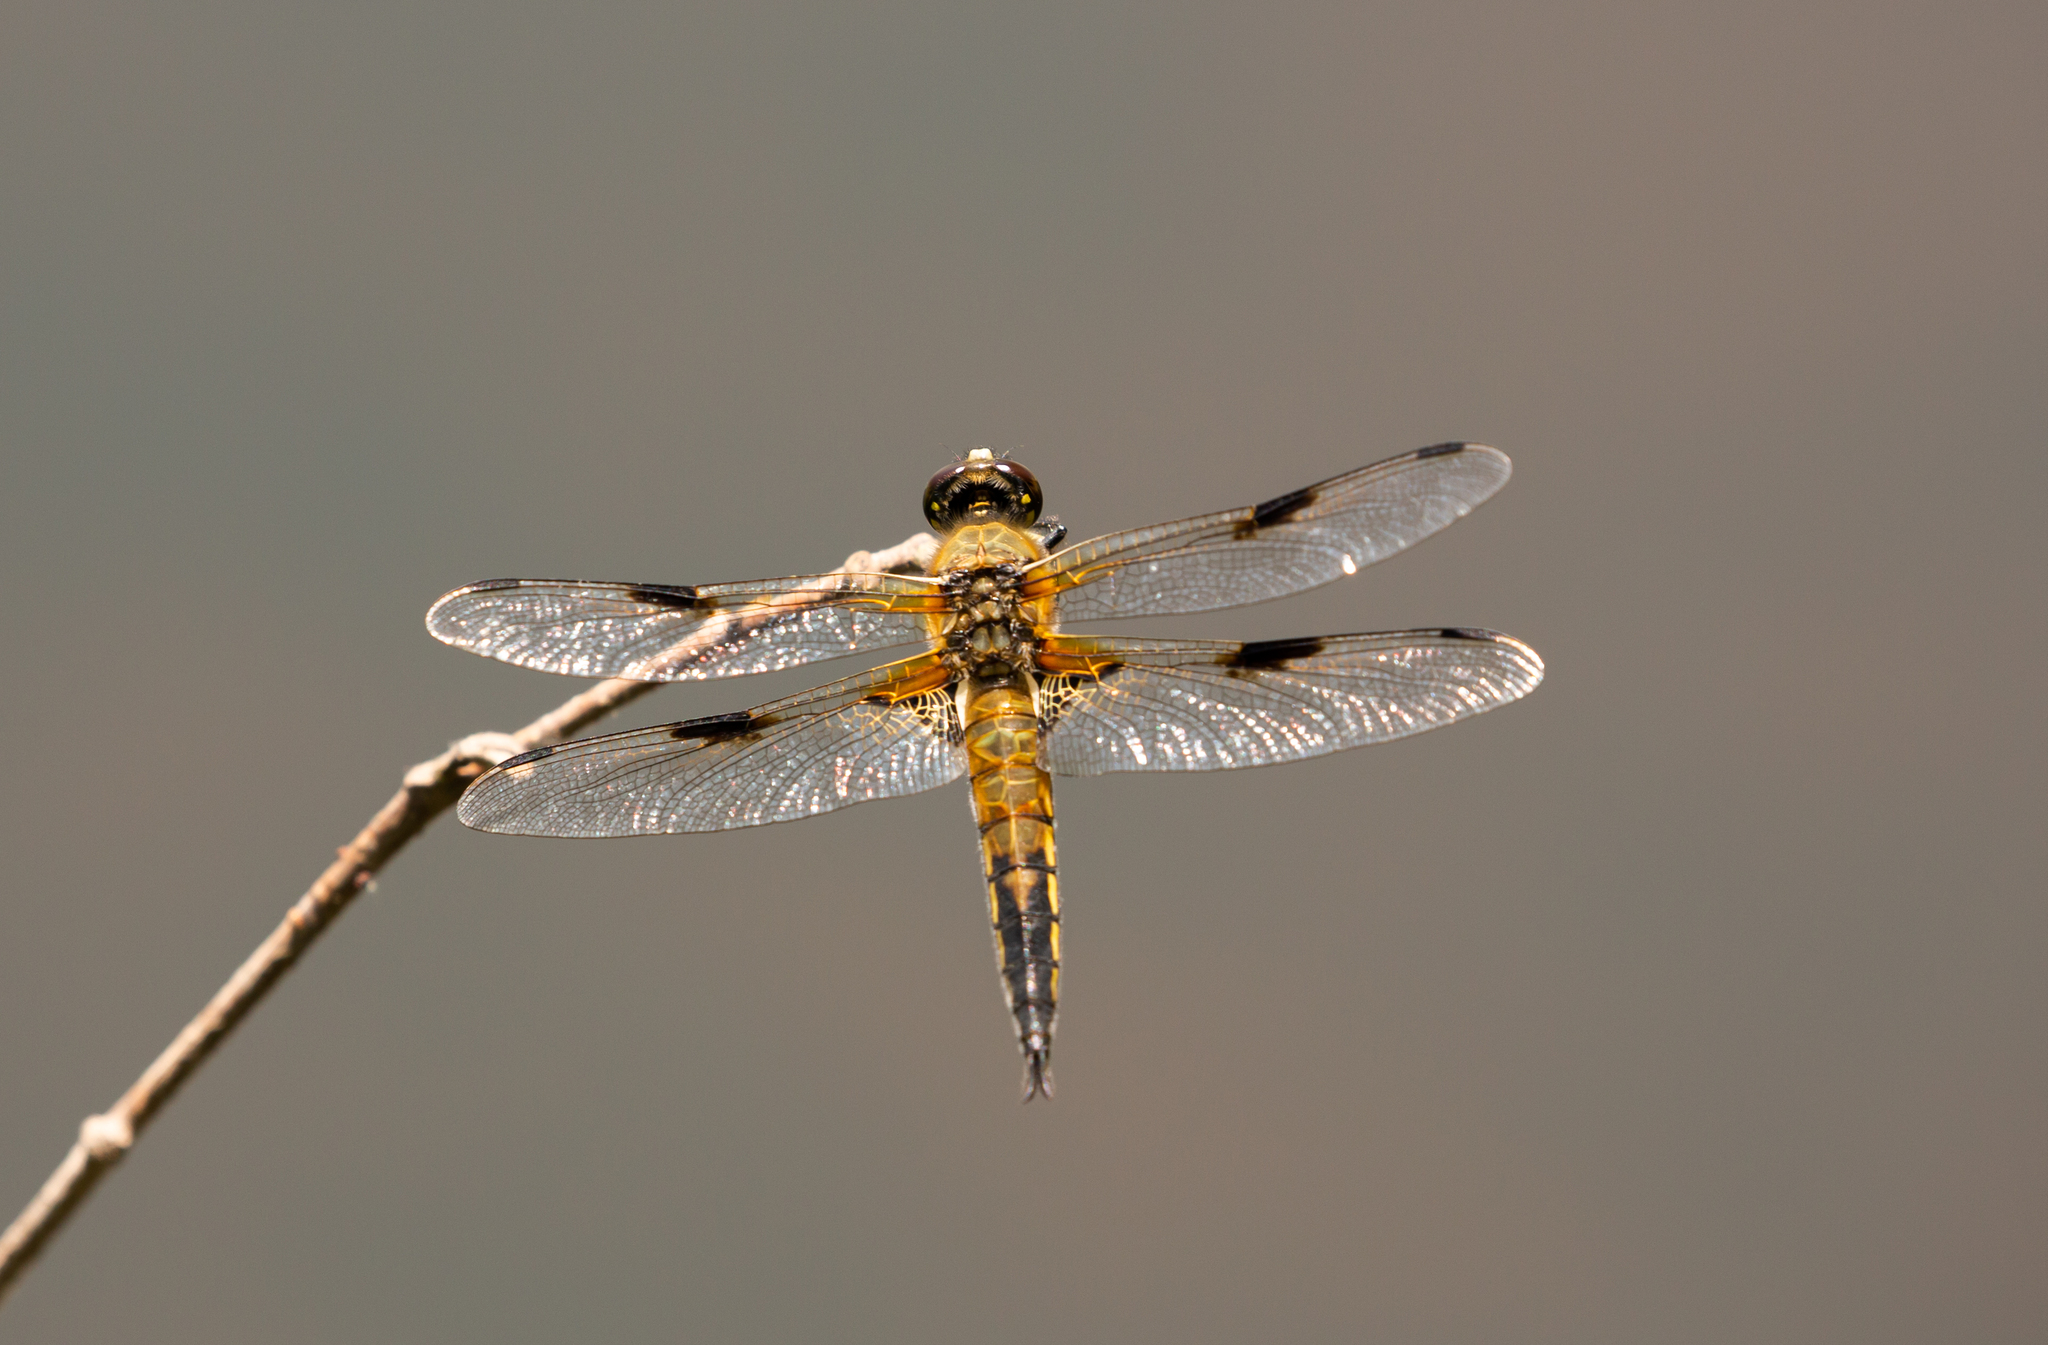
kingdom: Animalia
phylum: Arthropoda
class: Insecta
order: Odonata
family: Libellulidae
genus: Libellula
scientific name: Libellula quadrimaculata
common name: Four-spotted chaser
